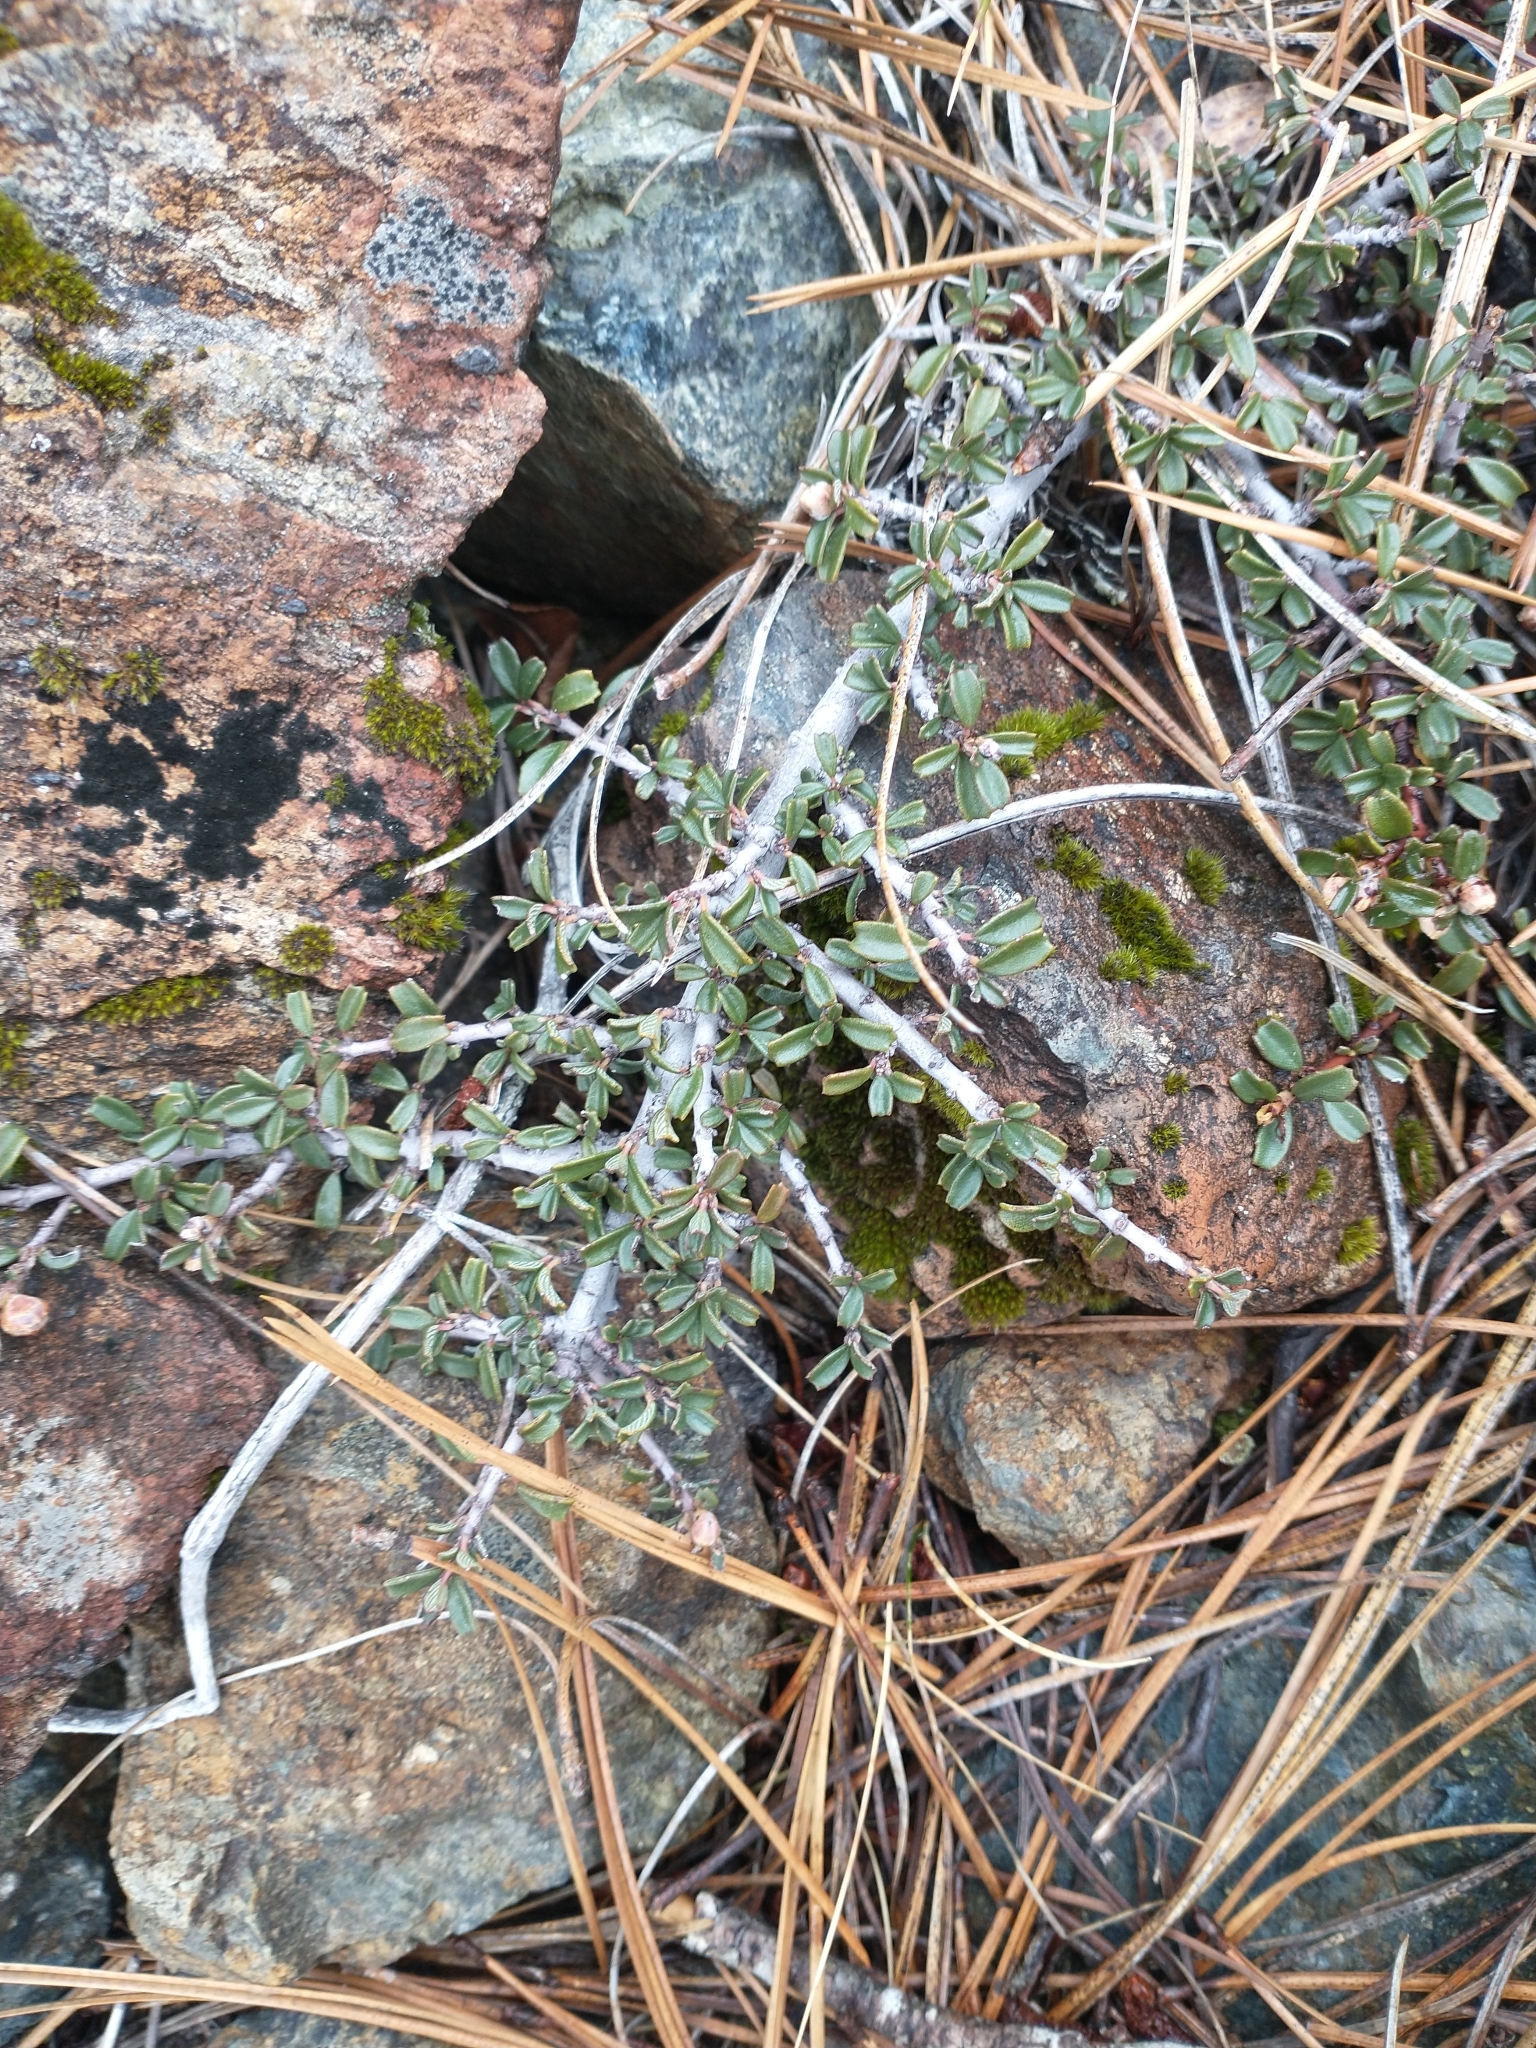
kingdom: Plantae
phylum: Tracheophyta
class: Magnoliopsida
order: Rosales
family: Rhamnaceae
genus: Ceanothus
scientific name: Ceanothus pumilus
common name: Siskiyou-mat
